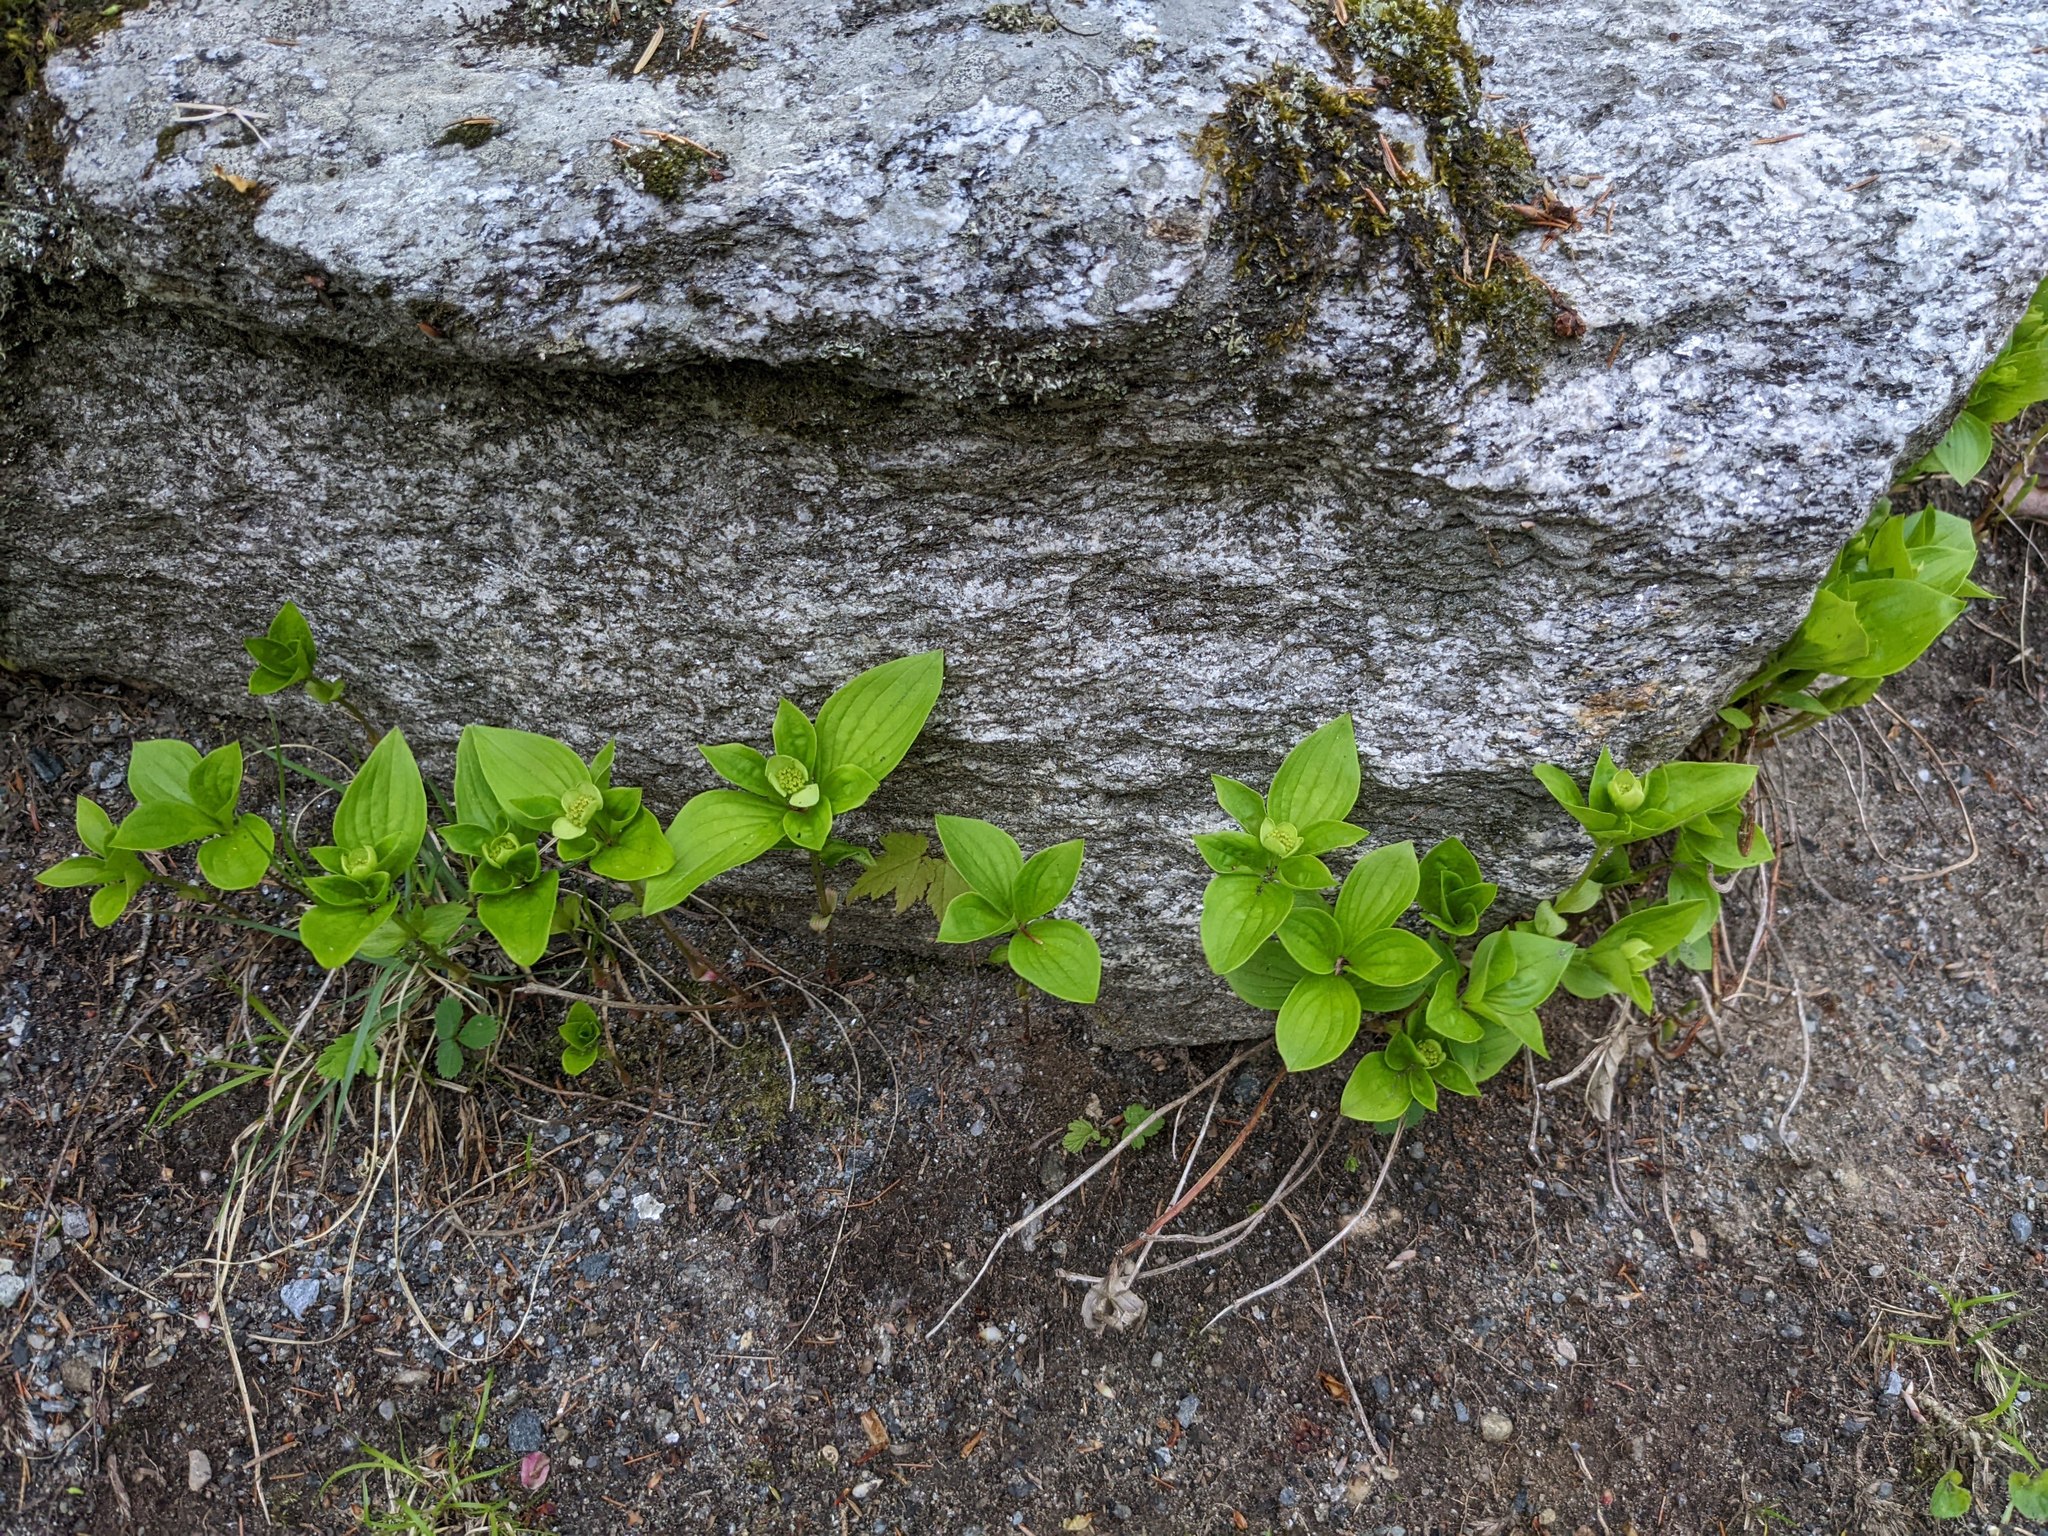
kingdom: Plantae
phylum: Tracheophyta
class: Magnoliopsida
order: Cornales
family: Cornaceae
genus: Cornus
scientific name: Cornus canadensis
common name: Creeping dogwood
